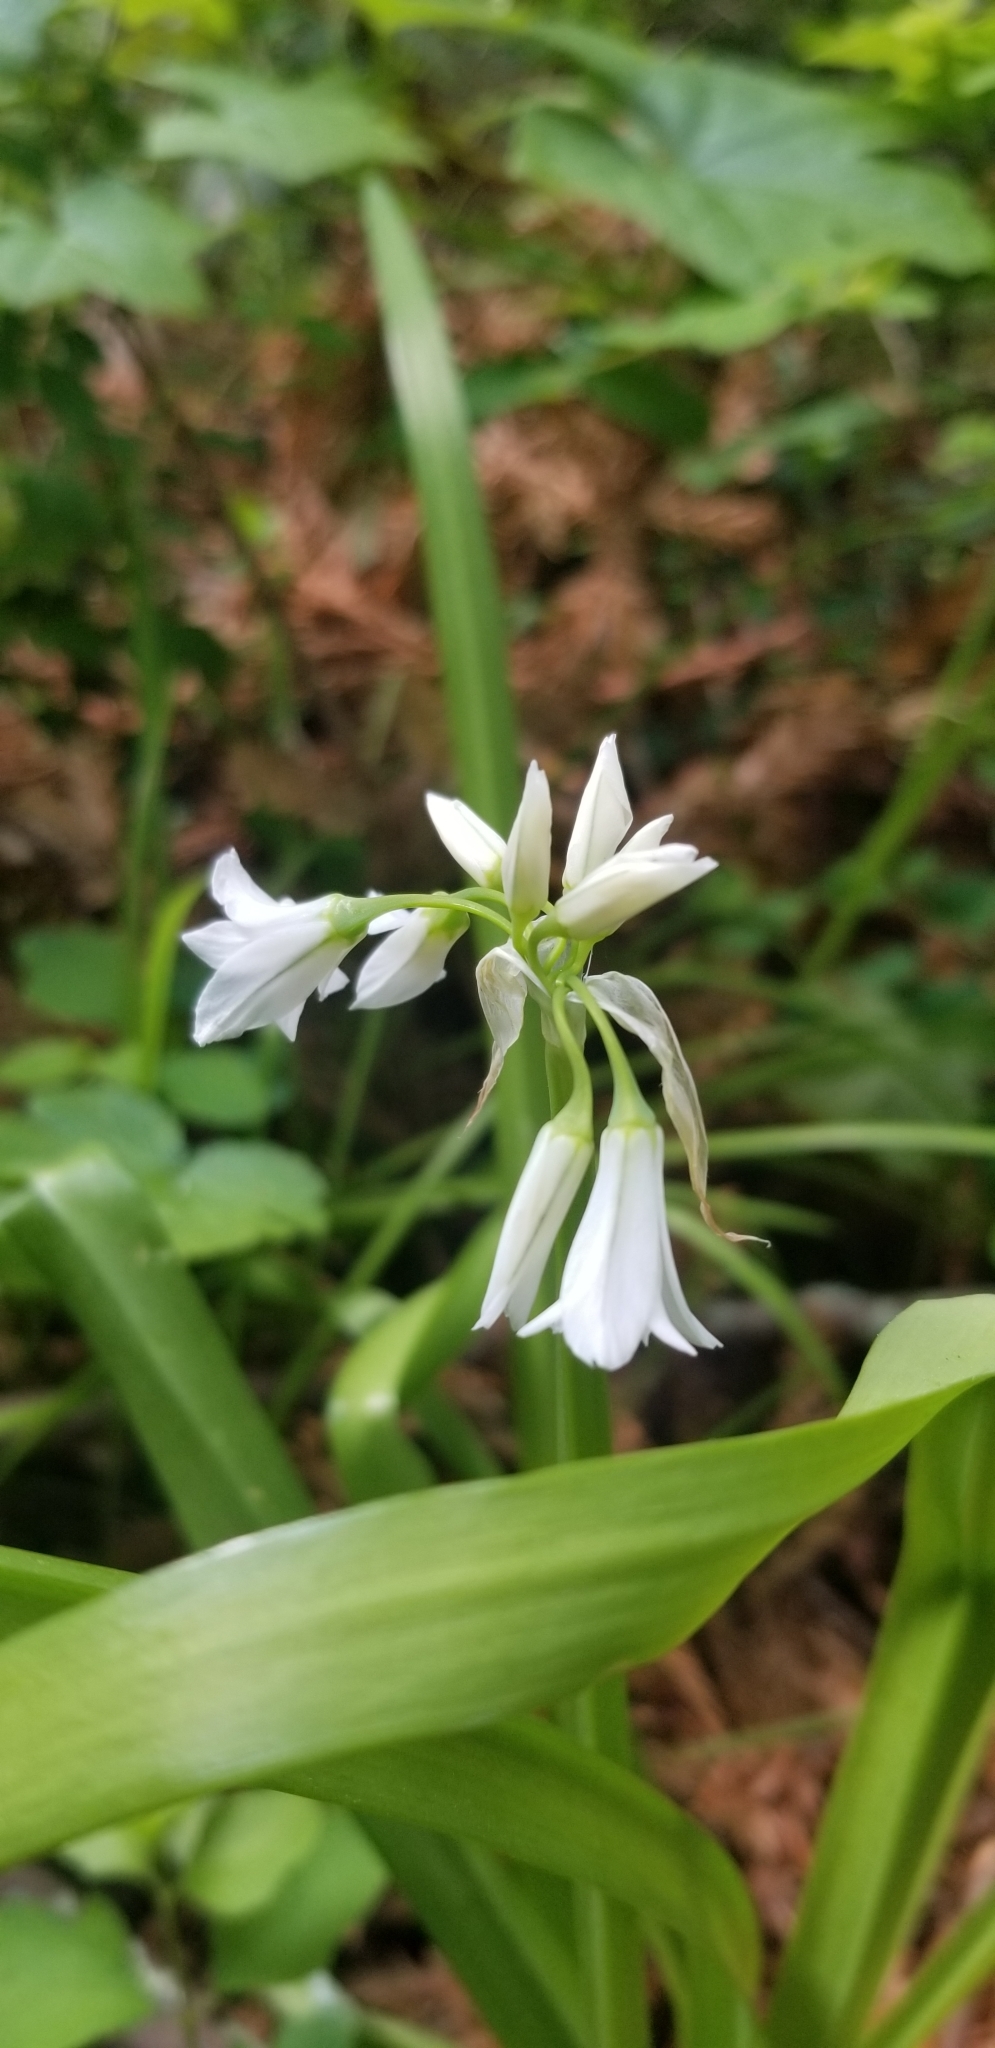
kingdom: Plantae
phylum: Tracheophyta
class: Liliopsida
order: Asparagales
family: Amaryllidaceae
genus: Allium
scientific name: Allium triquetrum
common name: Three-cornered garlic
